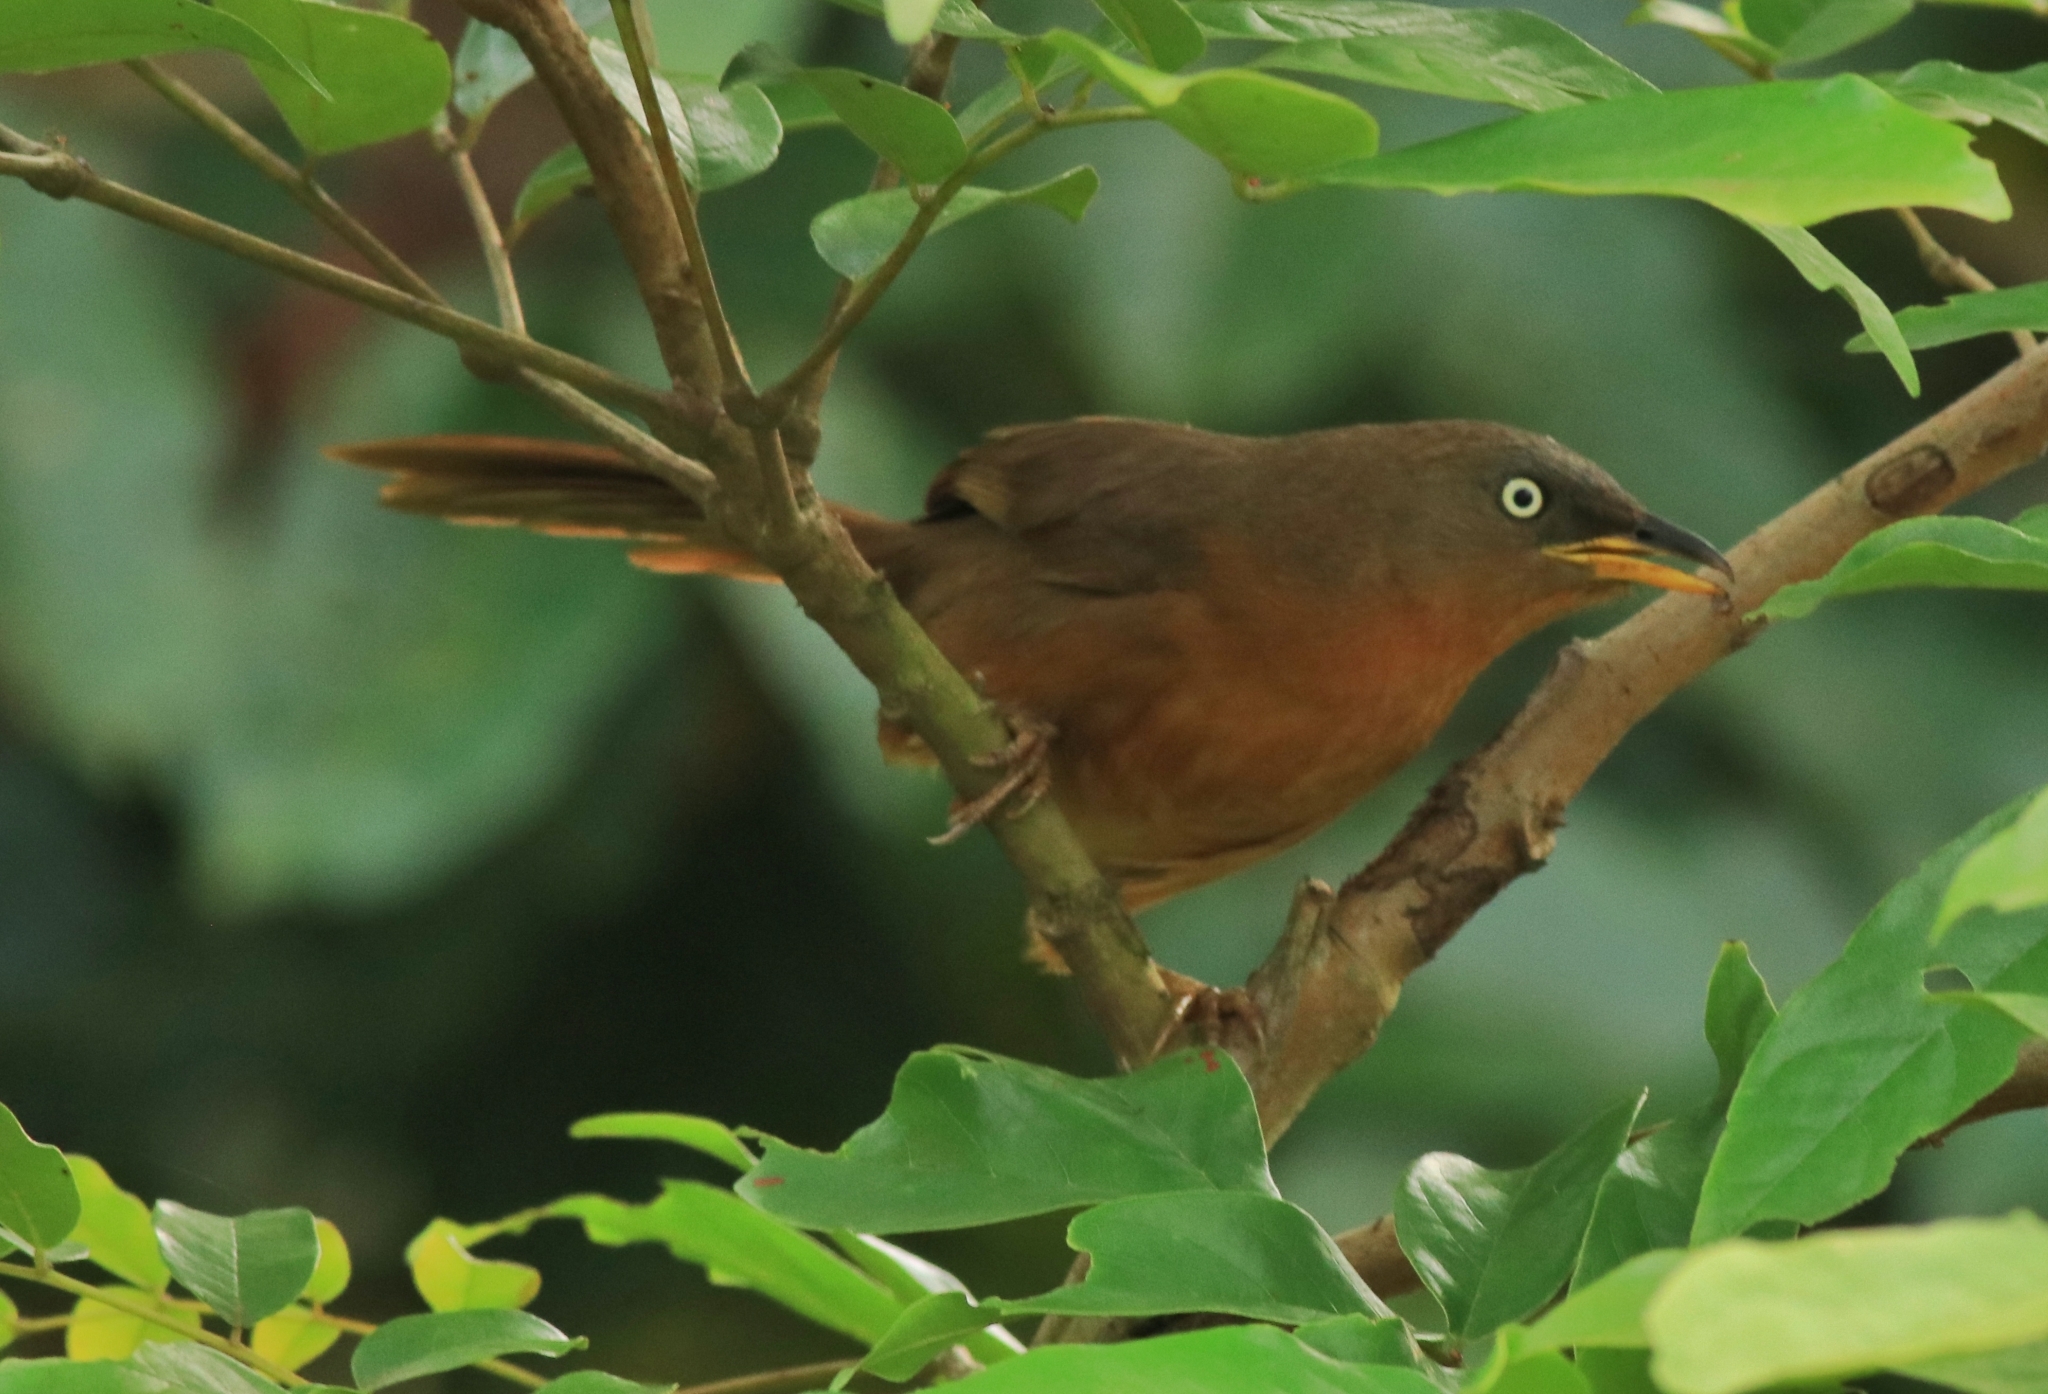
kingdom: Animalia
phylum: Chordata
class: Aves
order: Passeriformes
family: Leiothrichidae
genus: Turdoides
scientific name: Turdoides subrufa
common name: Rufous babbler
